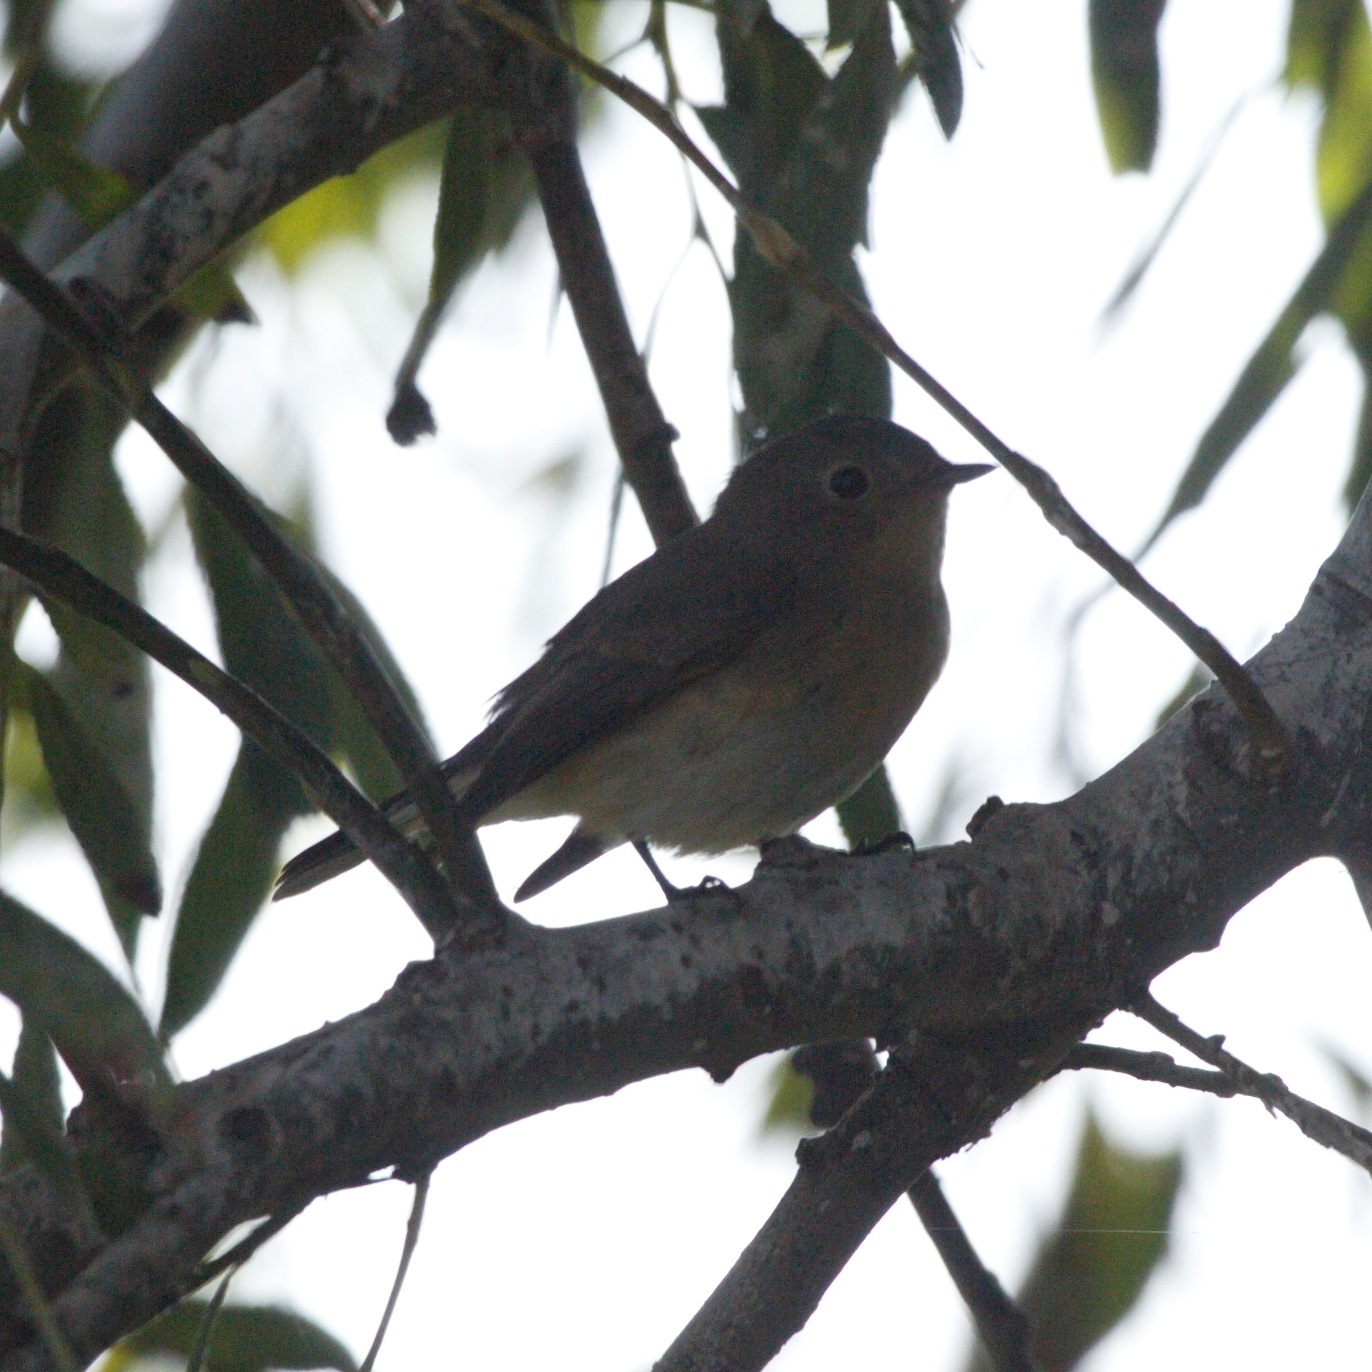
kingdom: Animalia
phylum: Chordata
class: Aves
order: Passeriformes
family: Muscicapidae
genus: Ficedula
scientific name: Ficedula parva
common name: Red-breasted flycatcher
